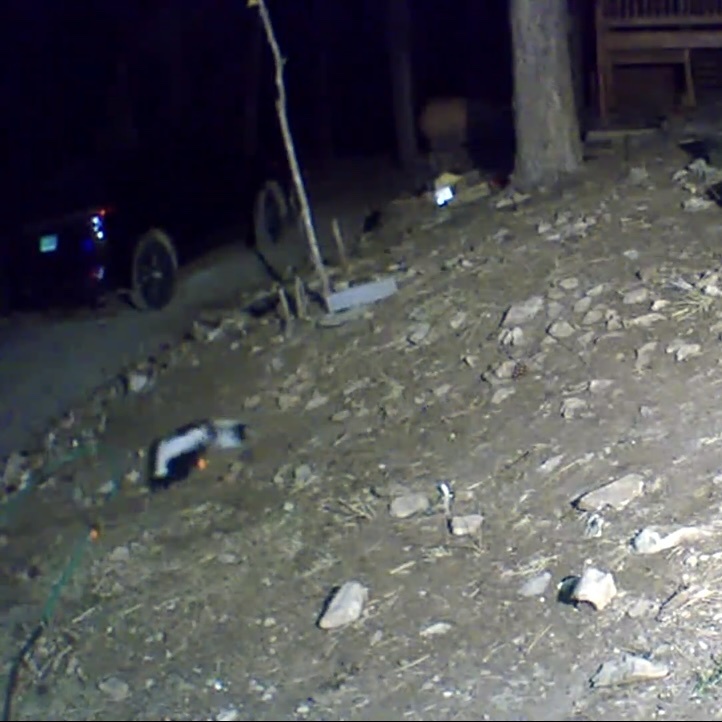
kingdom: Animalia
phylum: Chordata
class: Mammalia
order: Carnivora
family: Mephitidae
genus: Mephitis
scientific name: Mephitis mephitis
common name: Striped skunk
